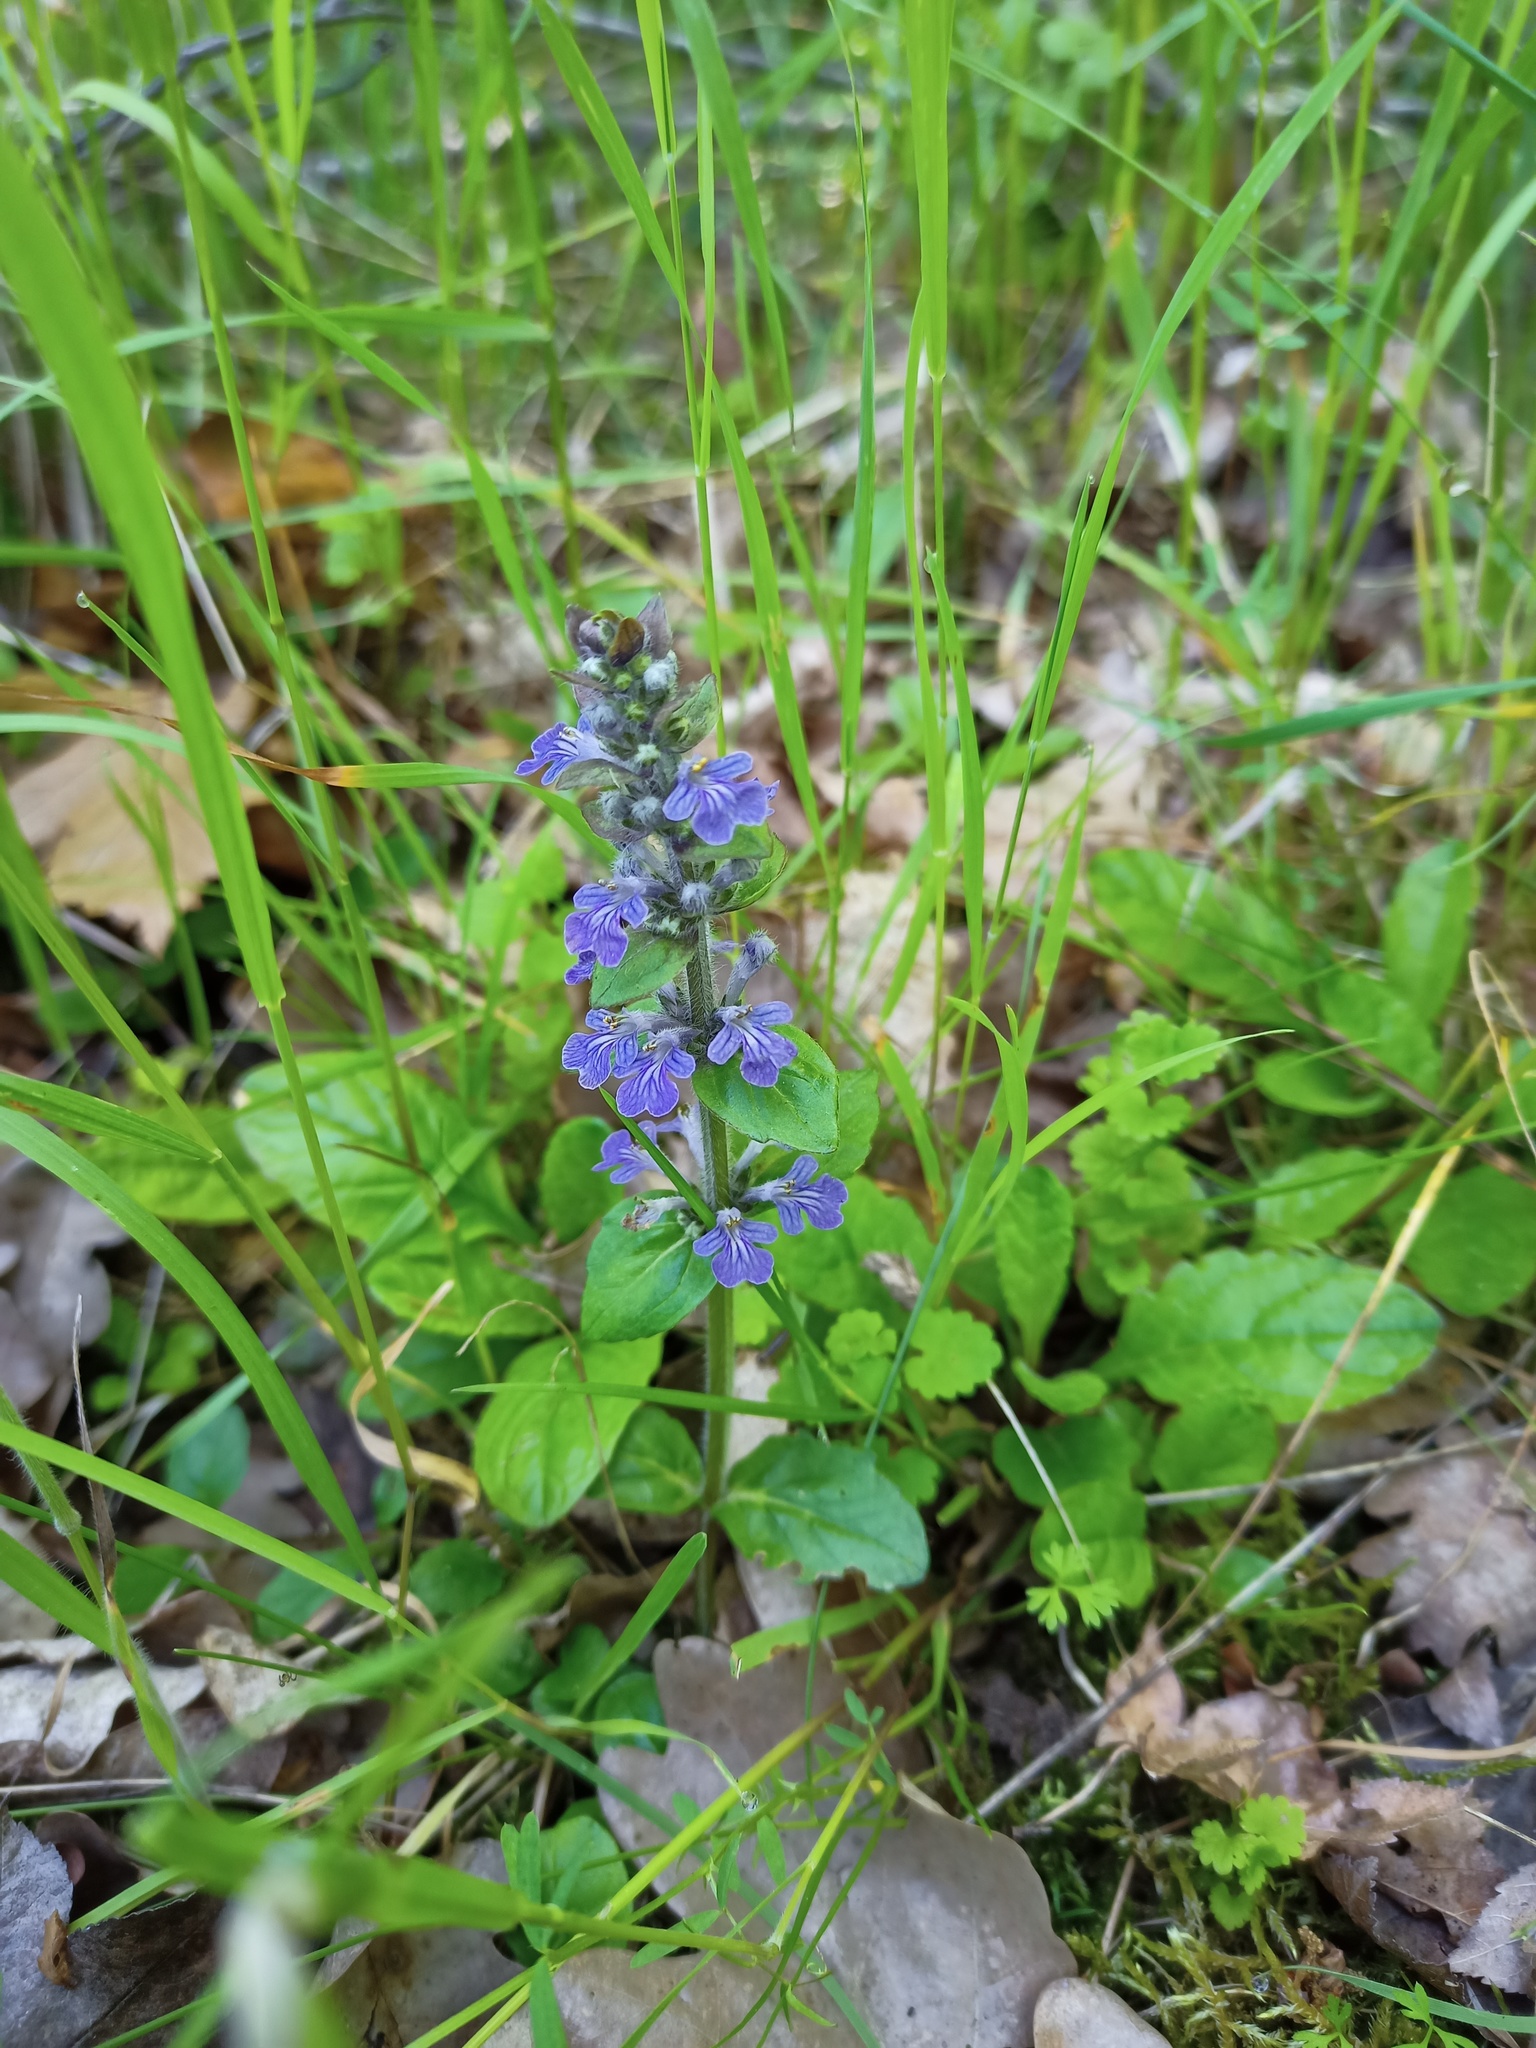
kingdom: Plantae
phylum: Tracheophyta
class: Magnoliopsida
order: Lamiales
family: Lamiaceae
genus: Ajuga
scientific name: Ajuga reptans
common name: Bugle
